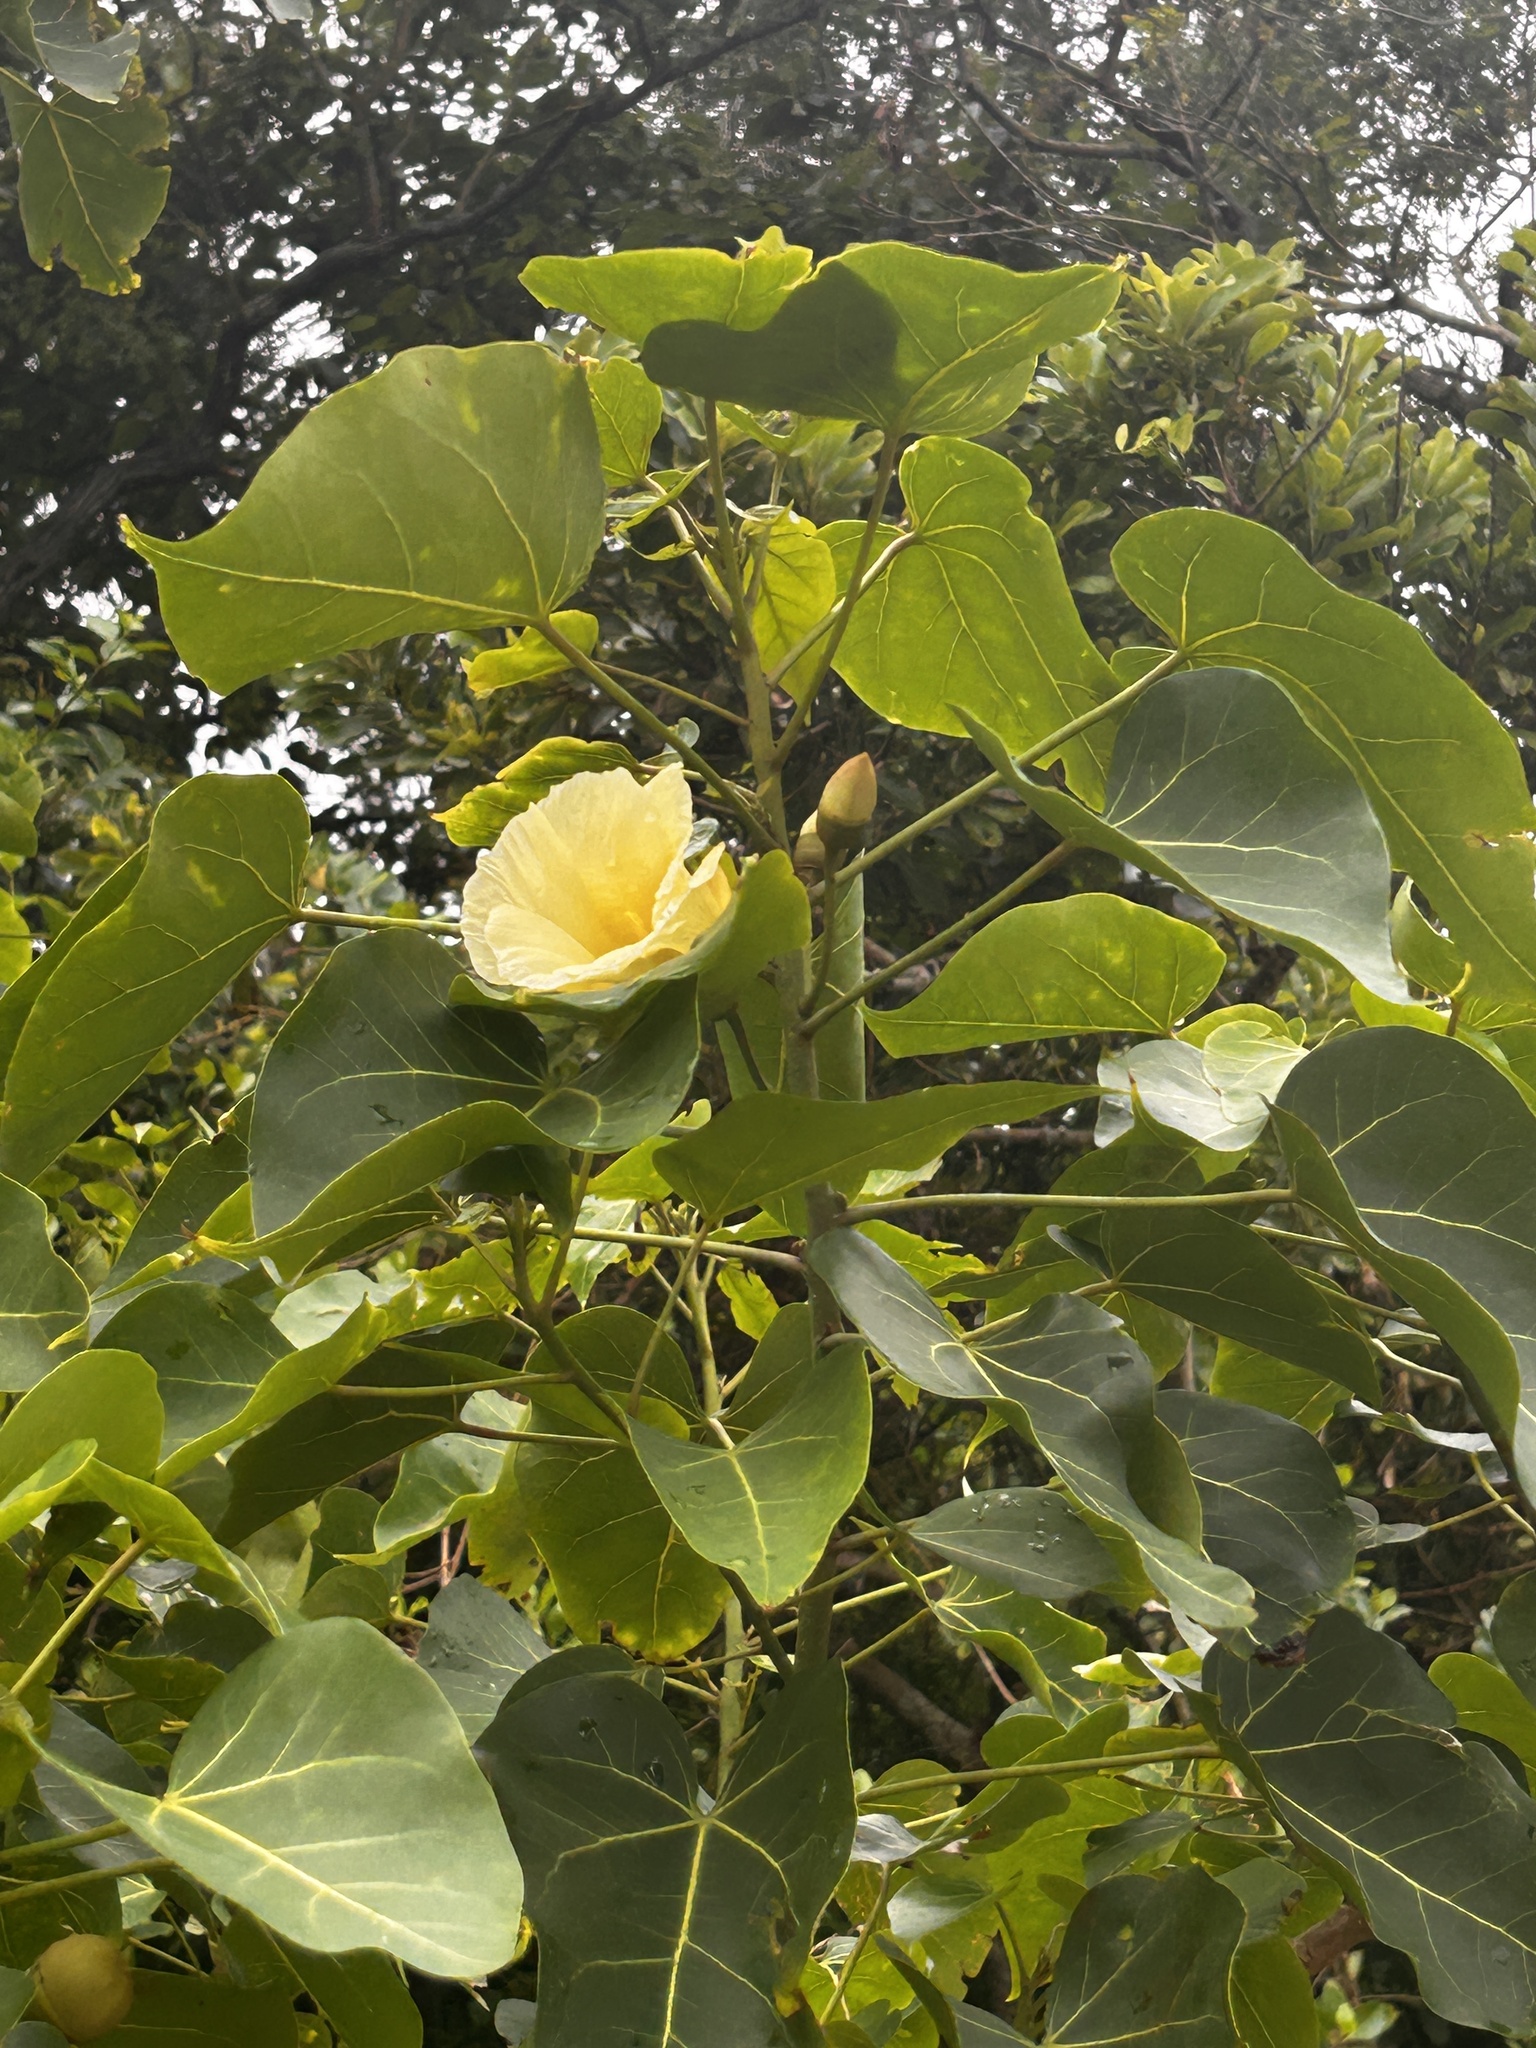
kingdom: Plantae
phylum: Tracheophyta
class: Magnoliopsida
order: Malvales
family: Malvaceae
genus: Thespesia
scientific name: Thespesia populnea
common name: Seaside mahoe
